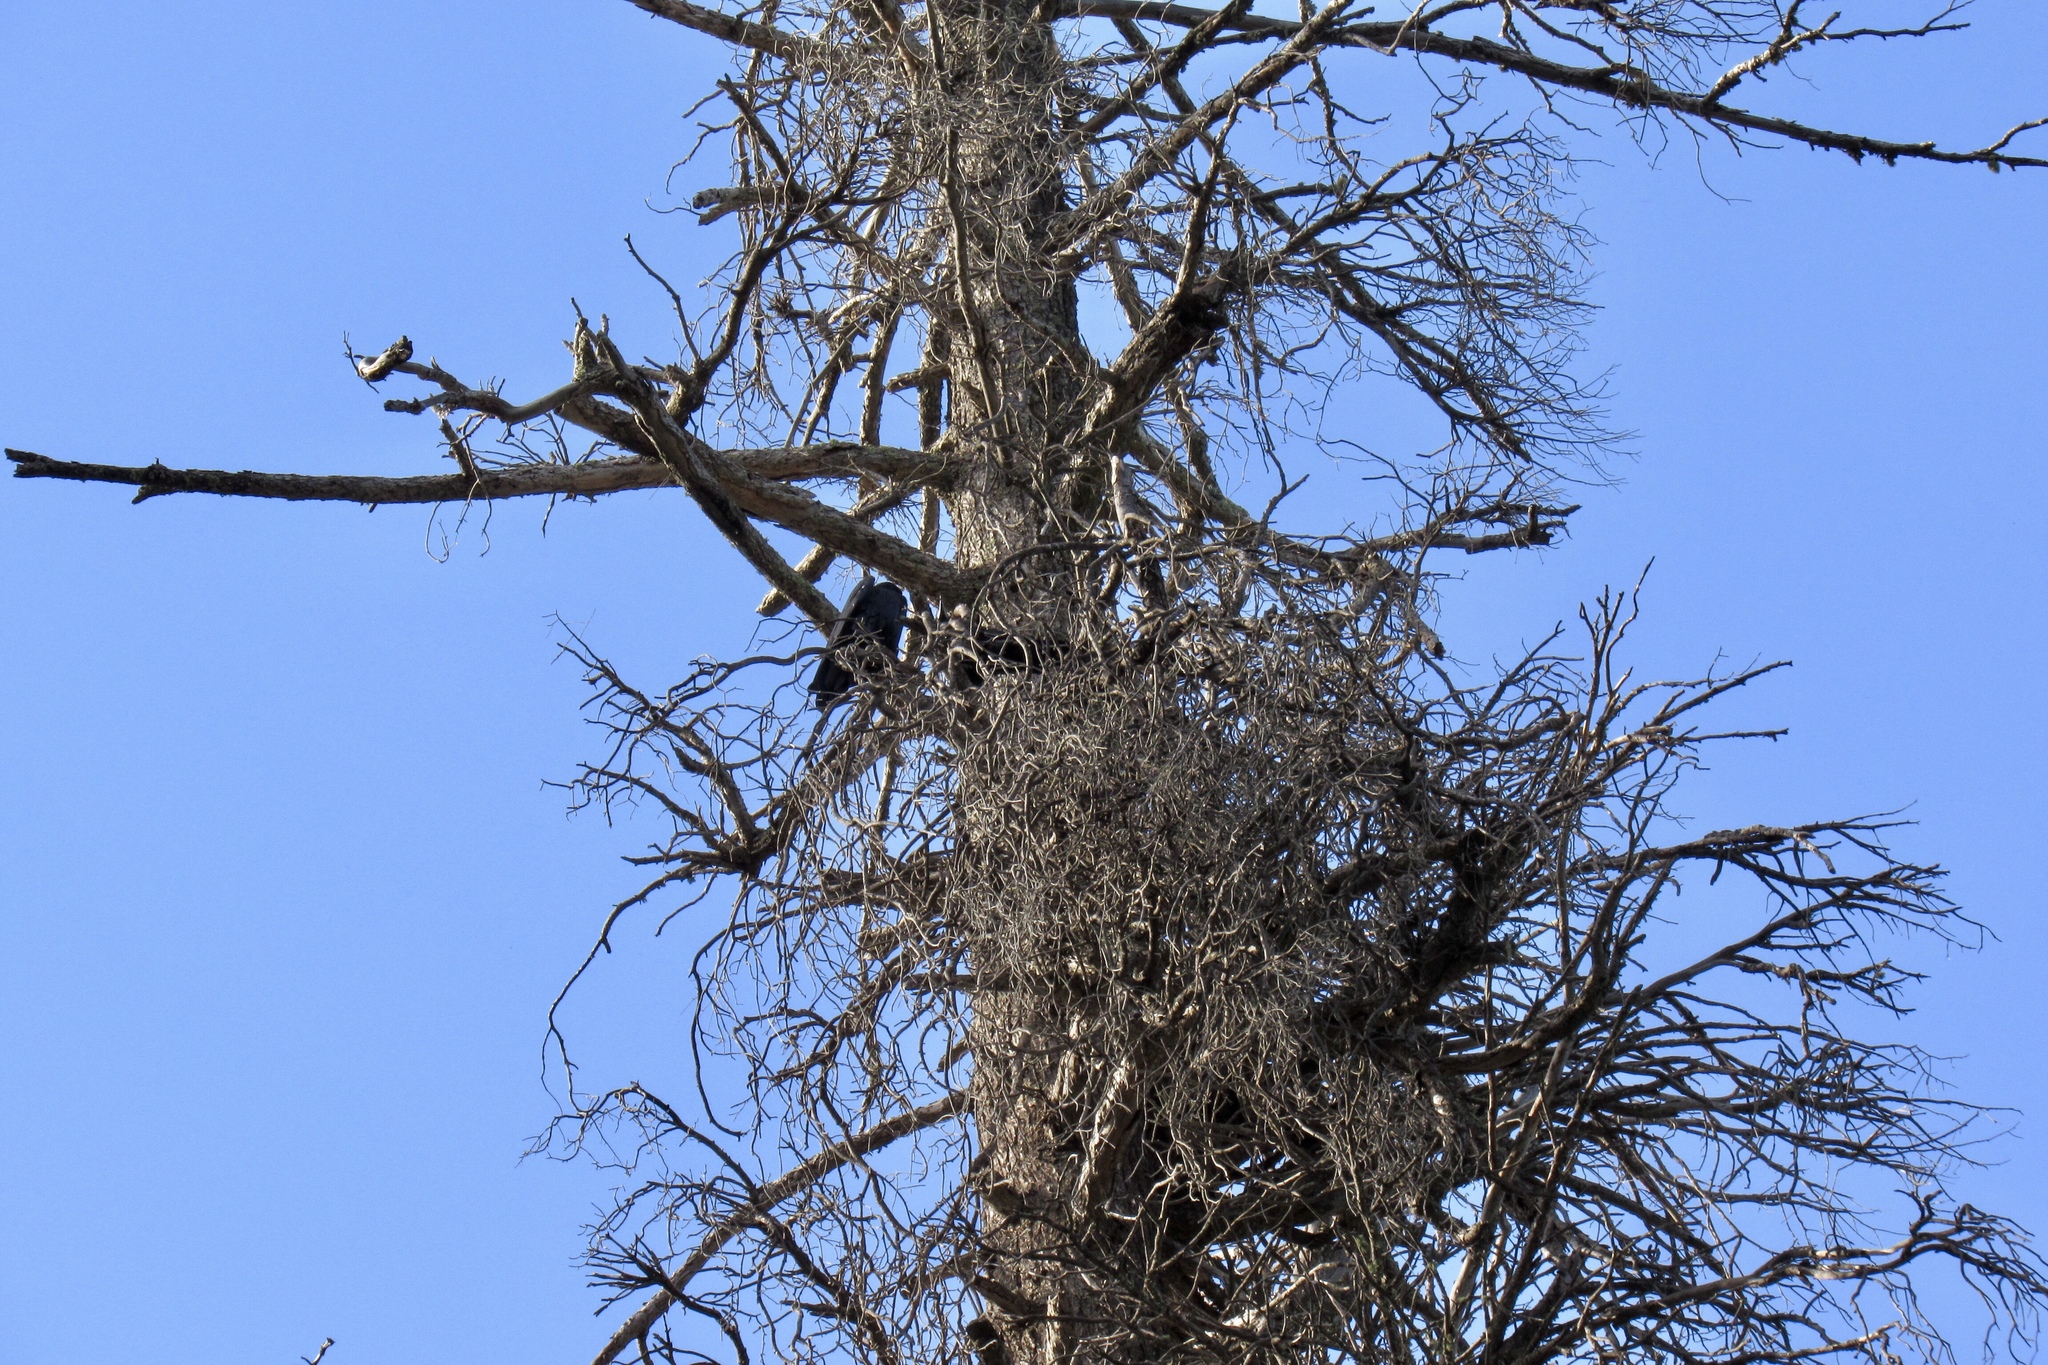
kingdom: Animalia
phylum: Chordata
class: Aves
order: Passeriformes
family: Corvidae
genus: Corvus
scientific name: Corvus corax
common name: Common raven
